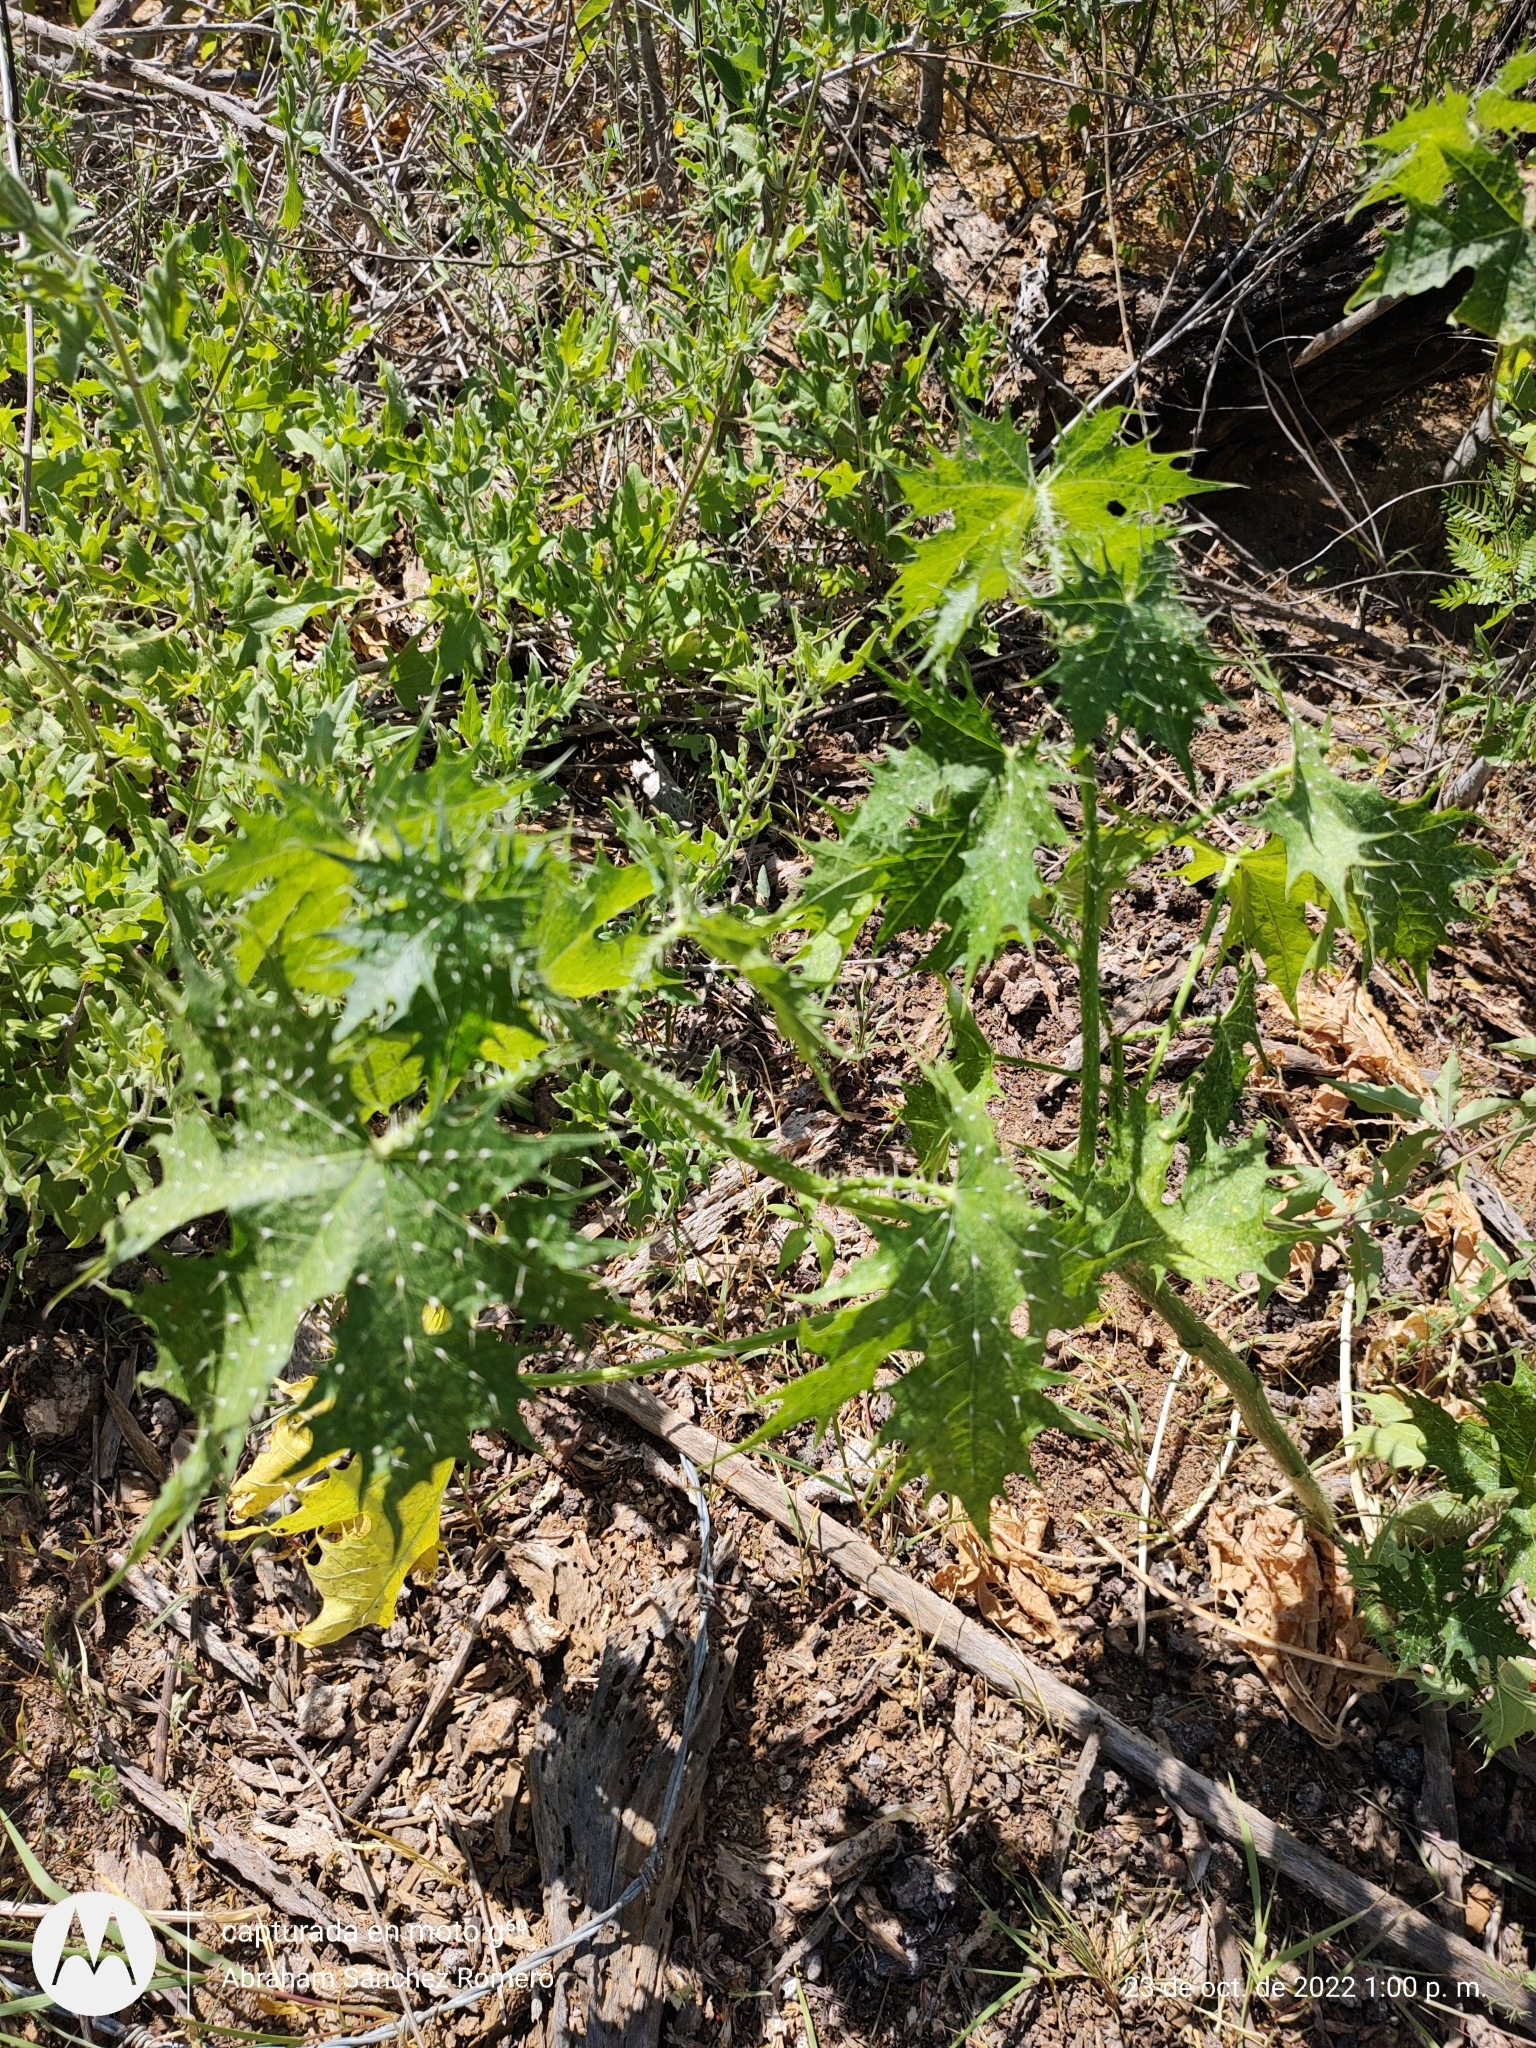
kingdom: Plantae
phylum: Tracheophyta
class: Magnoliopsida
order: Malpighiales
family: Euphorbiaceae
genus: Cnidoscolus
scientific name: Cnidoscolus maculatus
